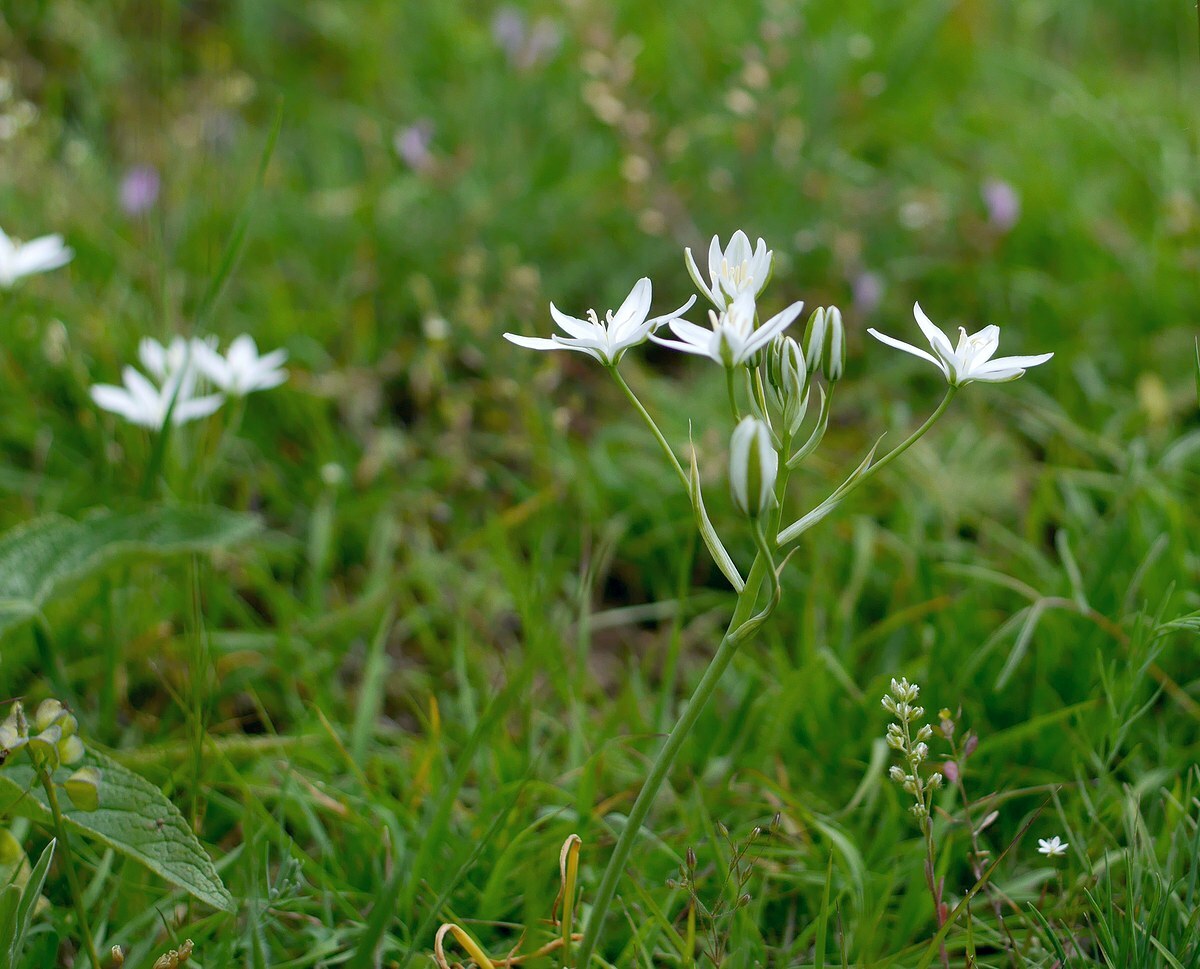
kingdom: Plantae
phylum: Tracheophyta
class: Liliopsida
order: Asparagales
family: Asparagaceae
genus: Ornithogalum
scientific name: Ornithogalum orthophyllum
